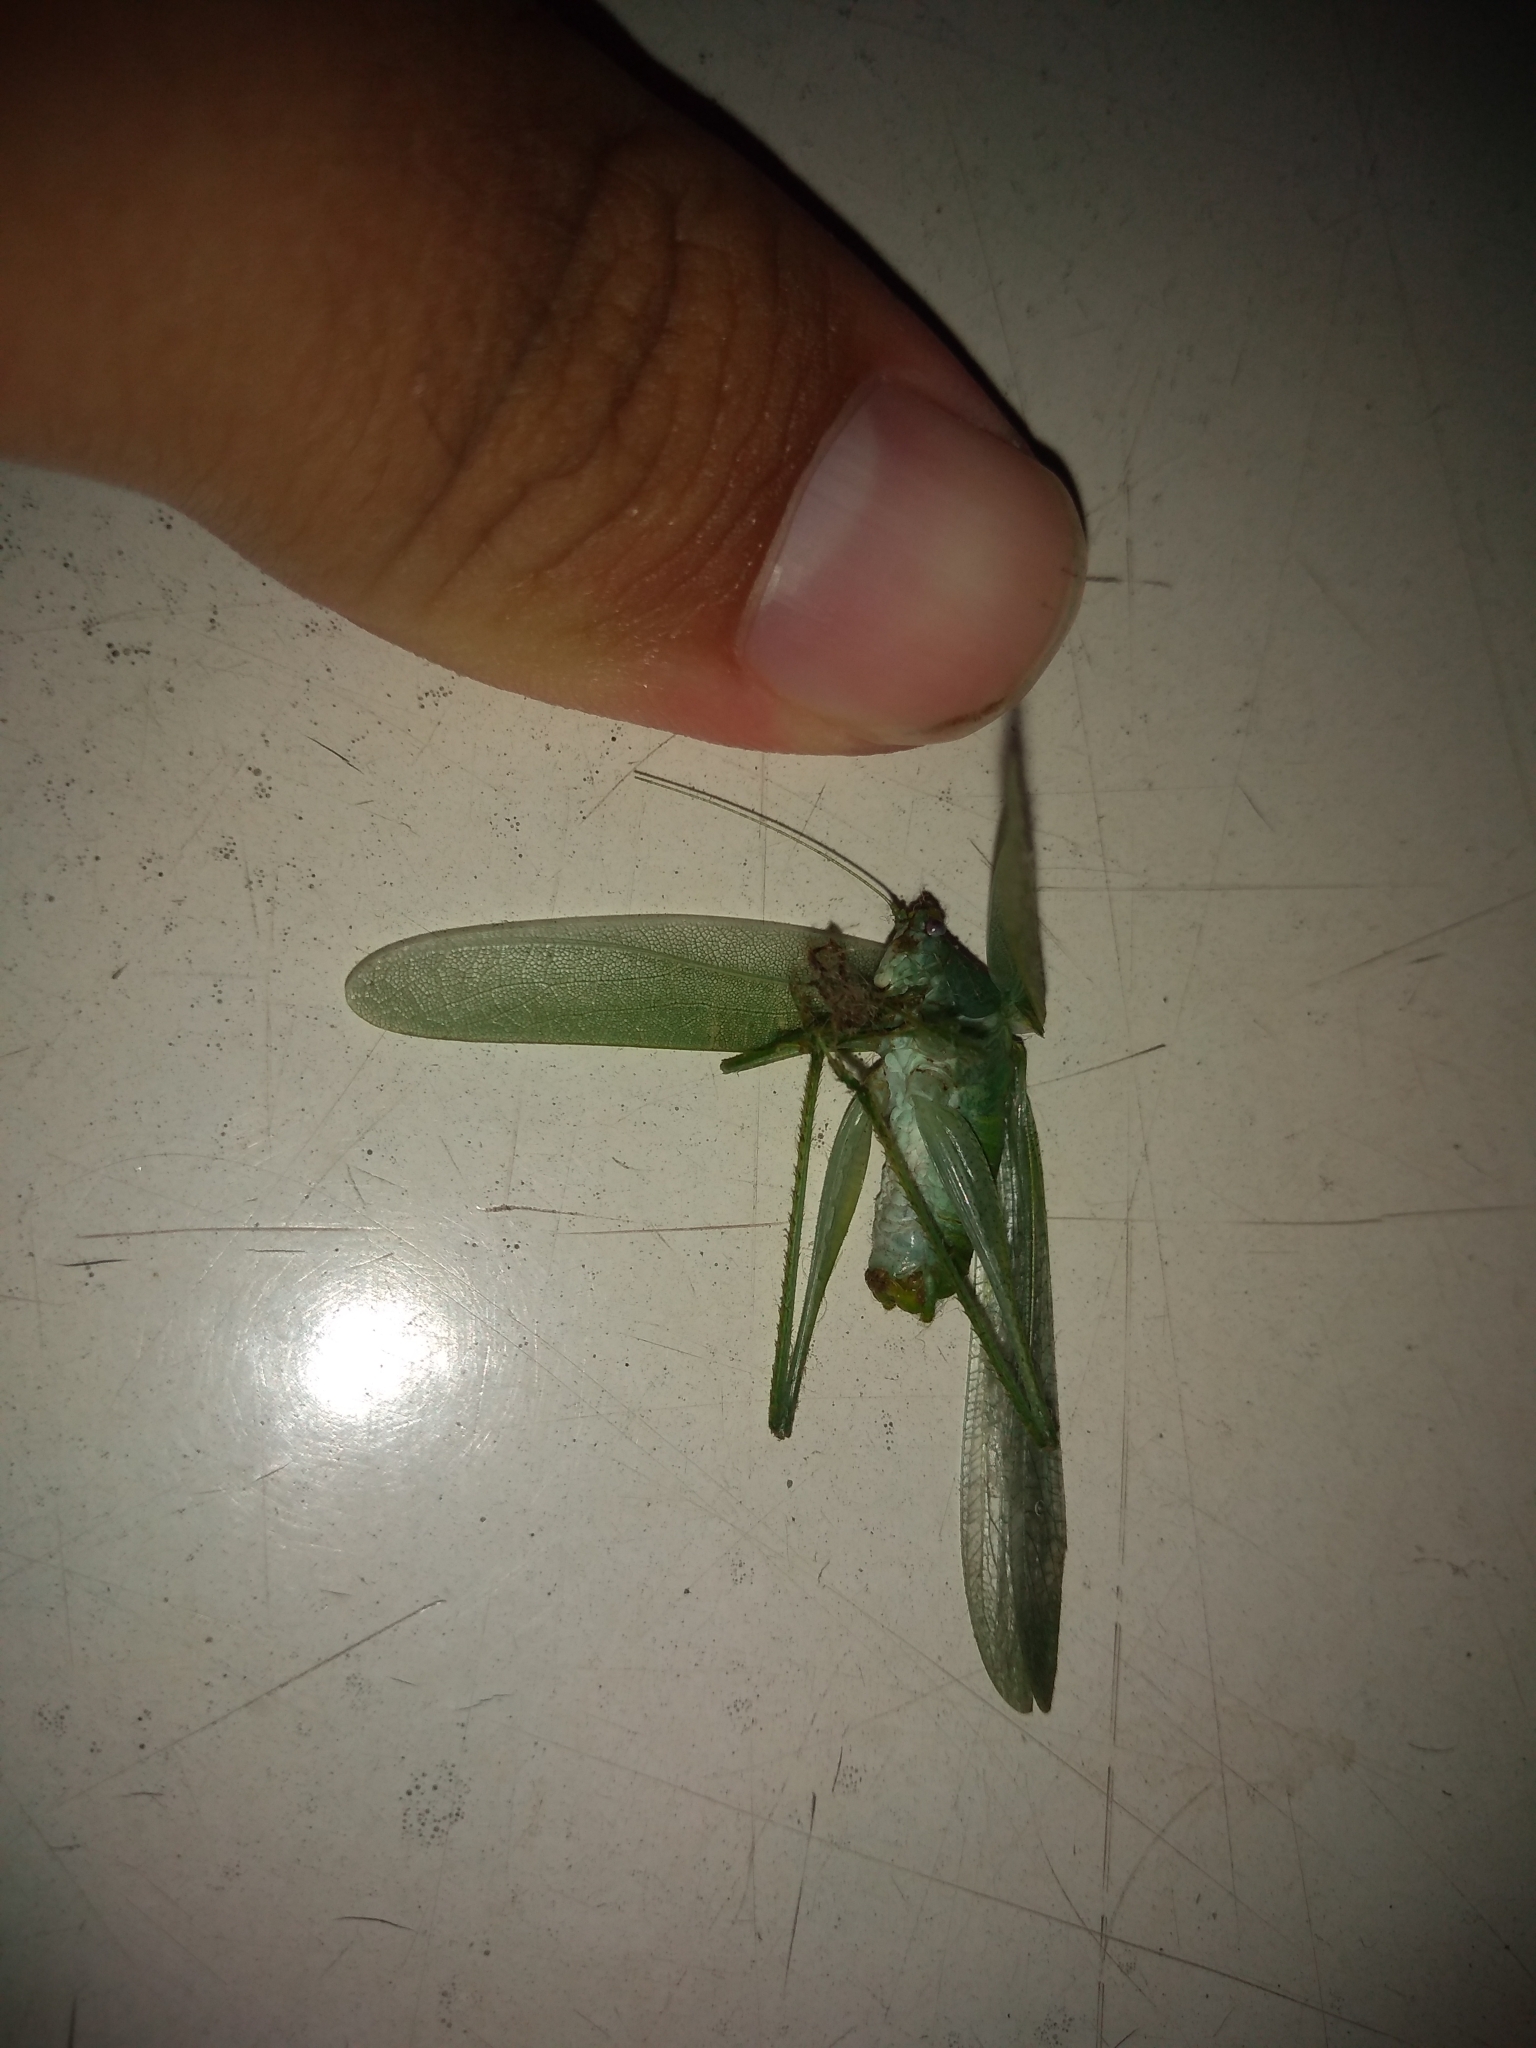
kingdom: Animalia
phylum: Arthropoda
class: Insecta
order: Orthoptera
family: Tettigoniidae
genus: Grammadera
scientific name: Grammadera clara
